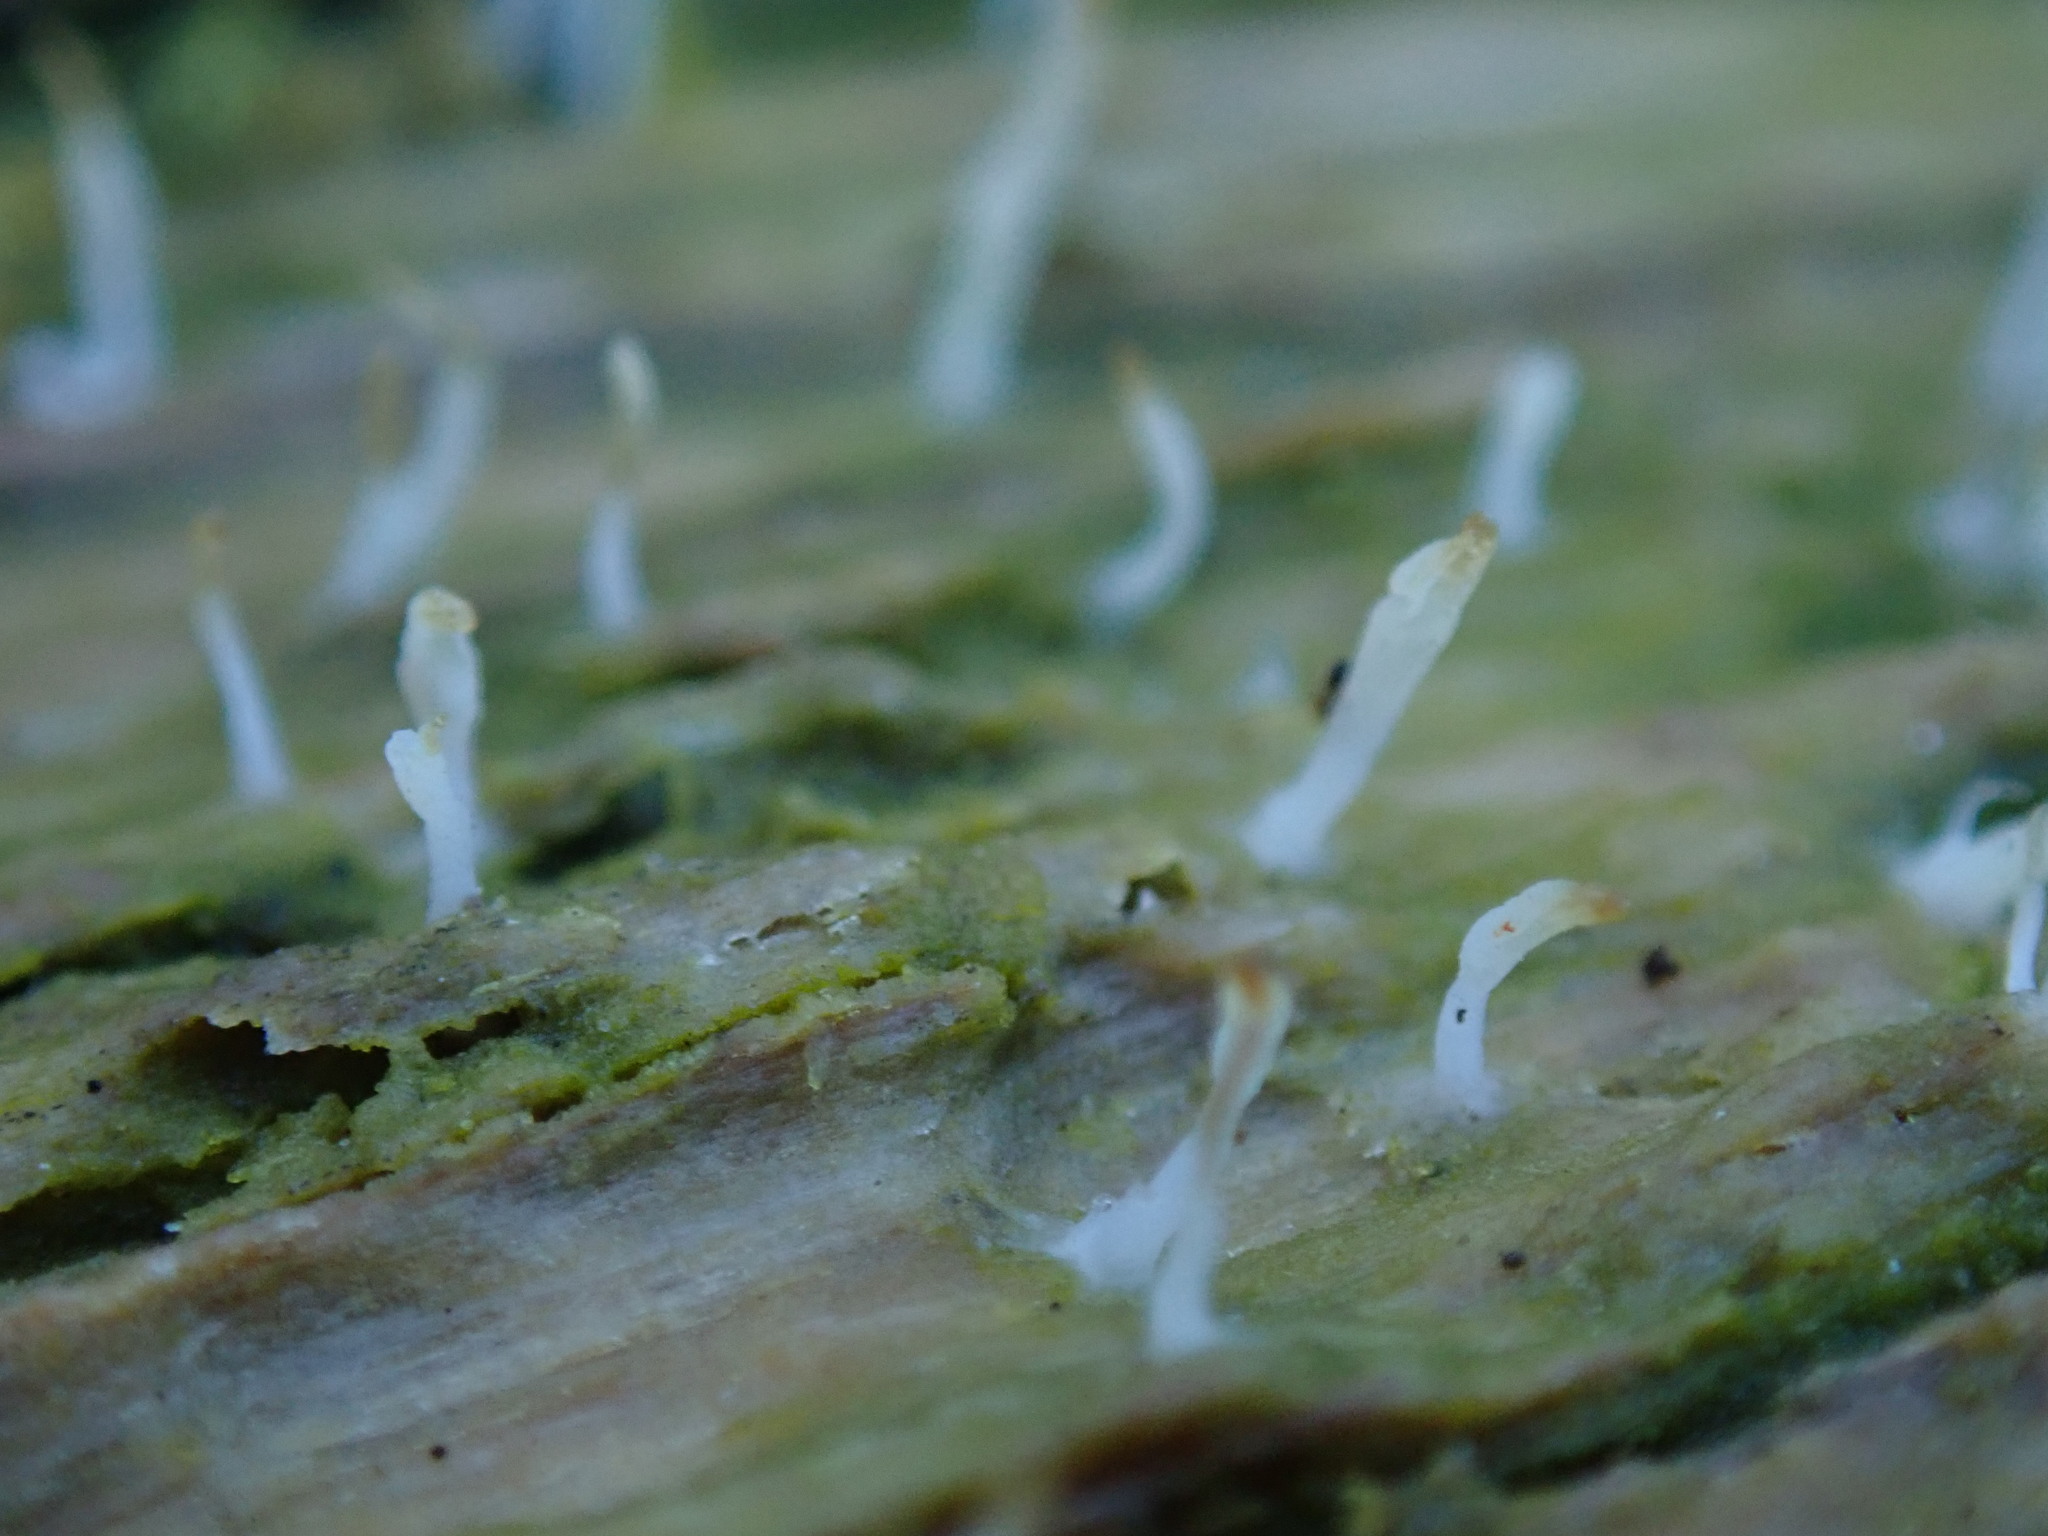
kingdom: Fungi
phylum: Basidiomycota
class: Agaricomycetes
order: Cantharellales
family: Hydnaceae
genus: Multiclavula
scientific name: Multiclavula mucida
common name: White green-algae coral
